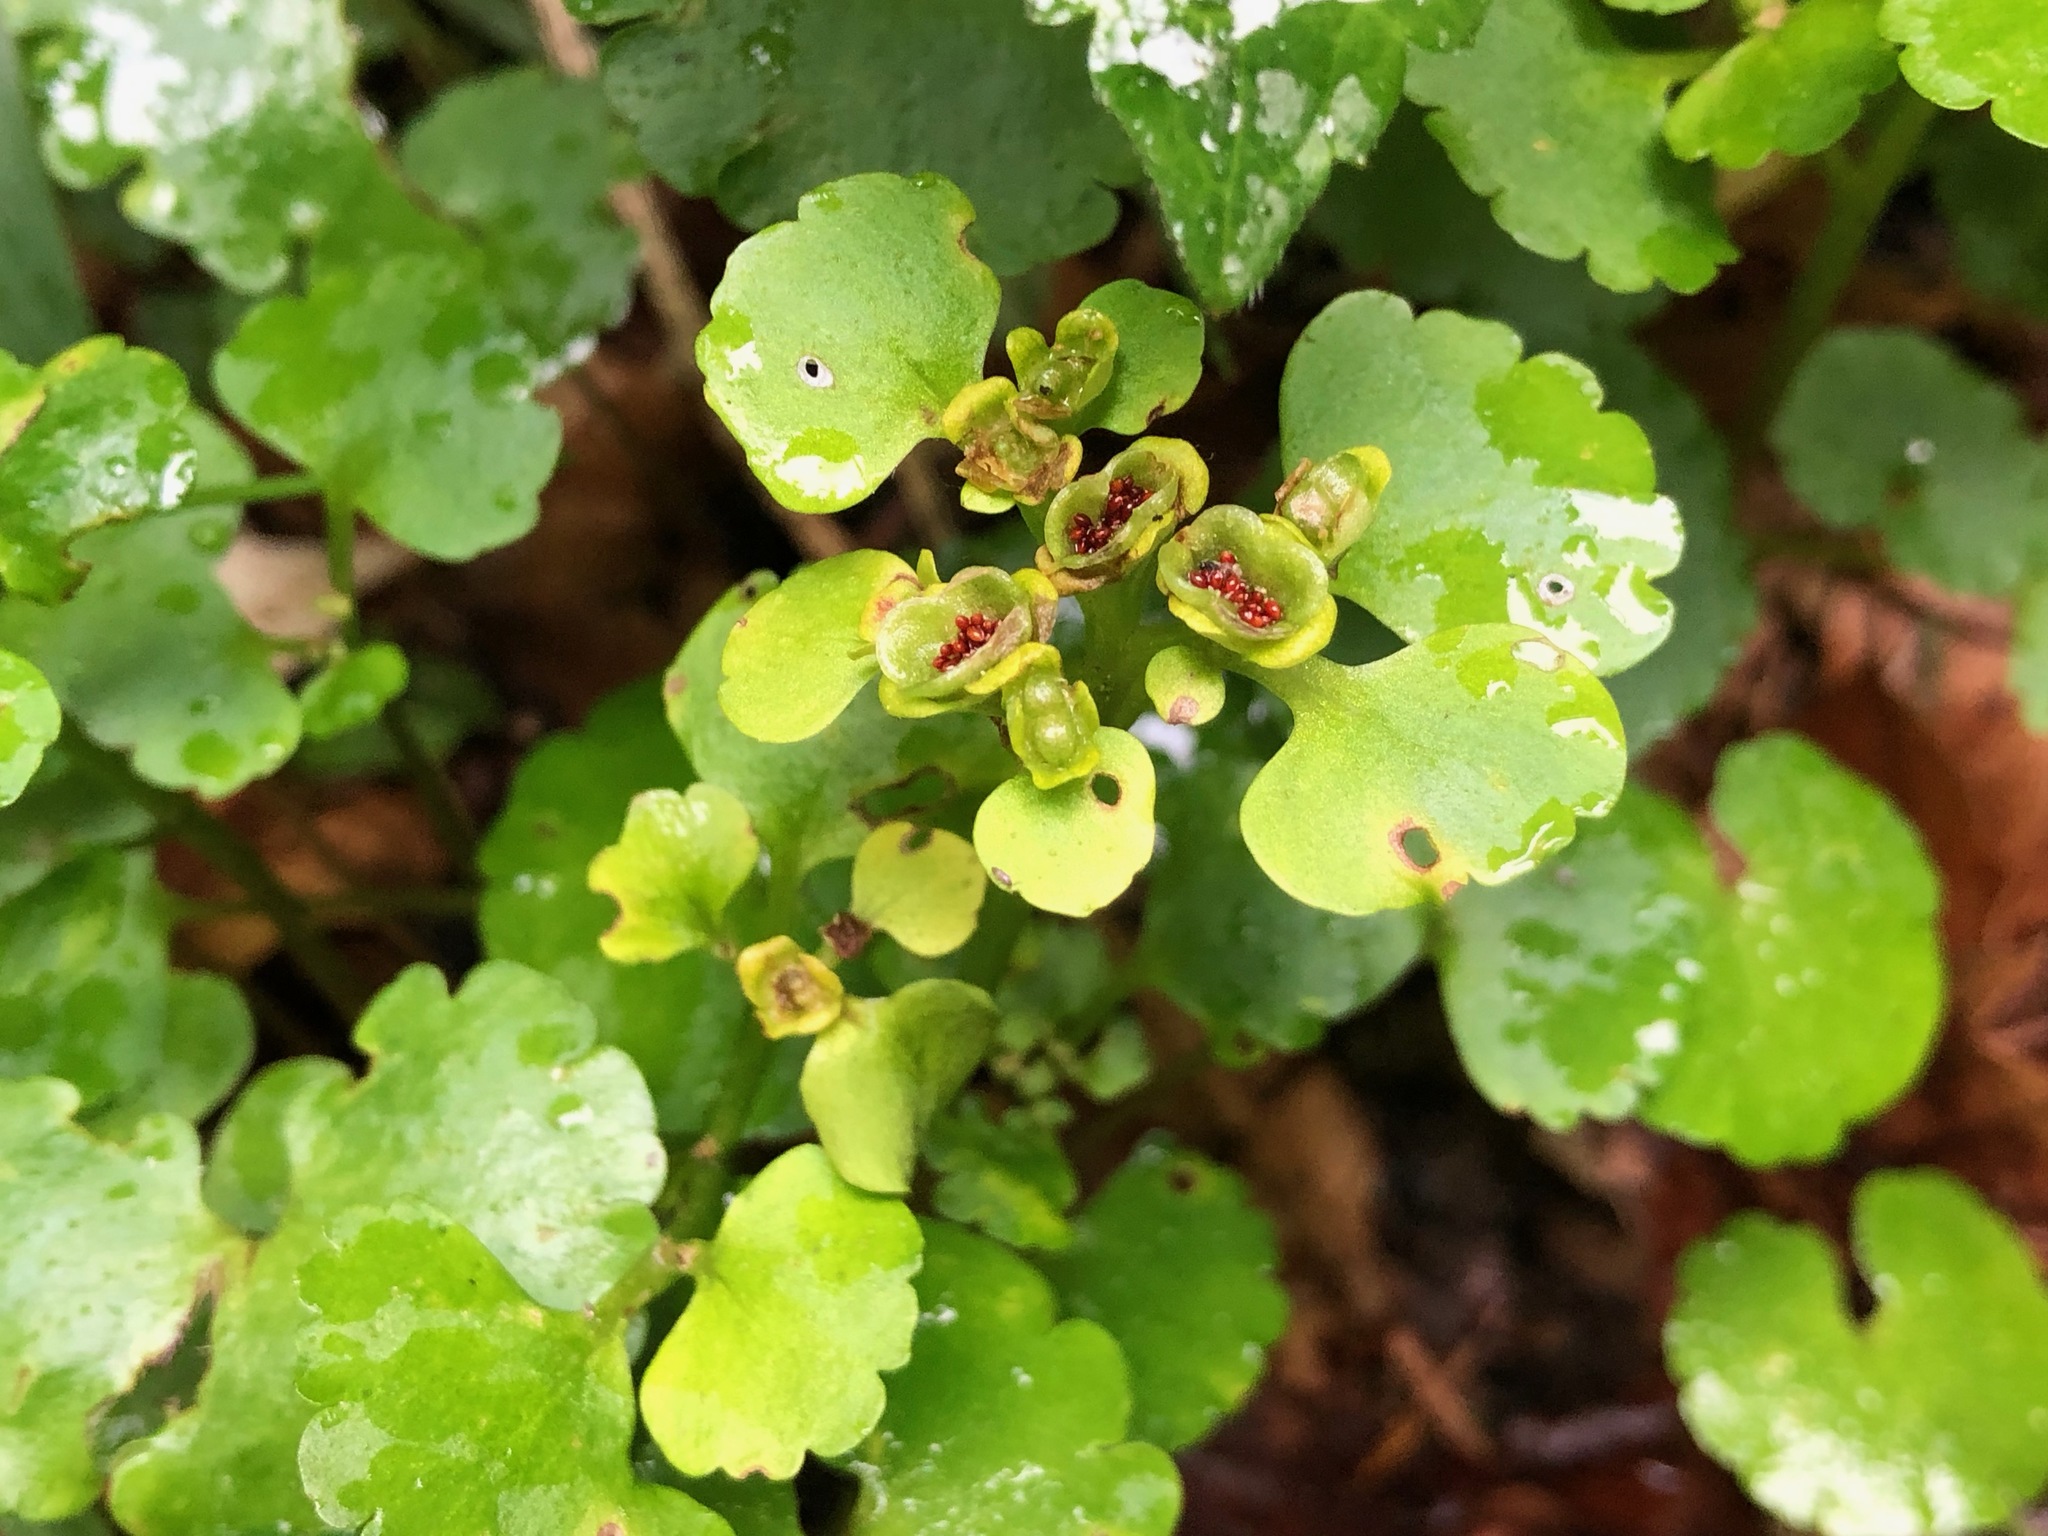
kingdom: Plantae
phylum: Tracheophyta
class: Magnoliopsida
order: Saxifragales
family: Saxifragaceae
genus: Chrysosplenium
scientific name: Chrysosplenium alternifolium
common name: Alternate-leaved golden-saxifrage
